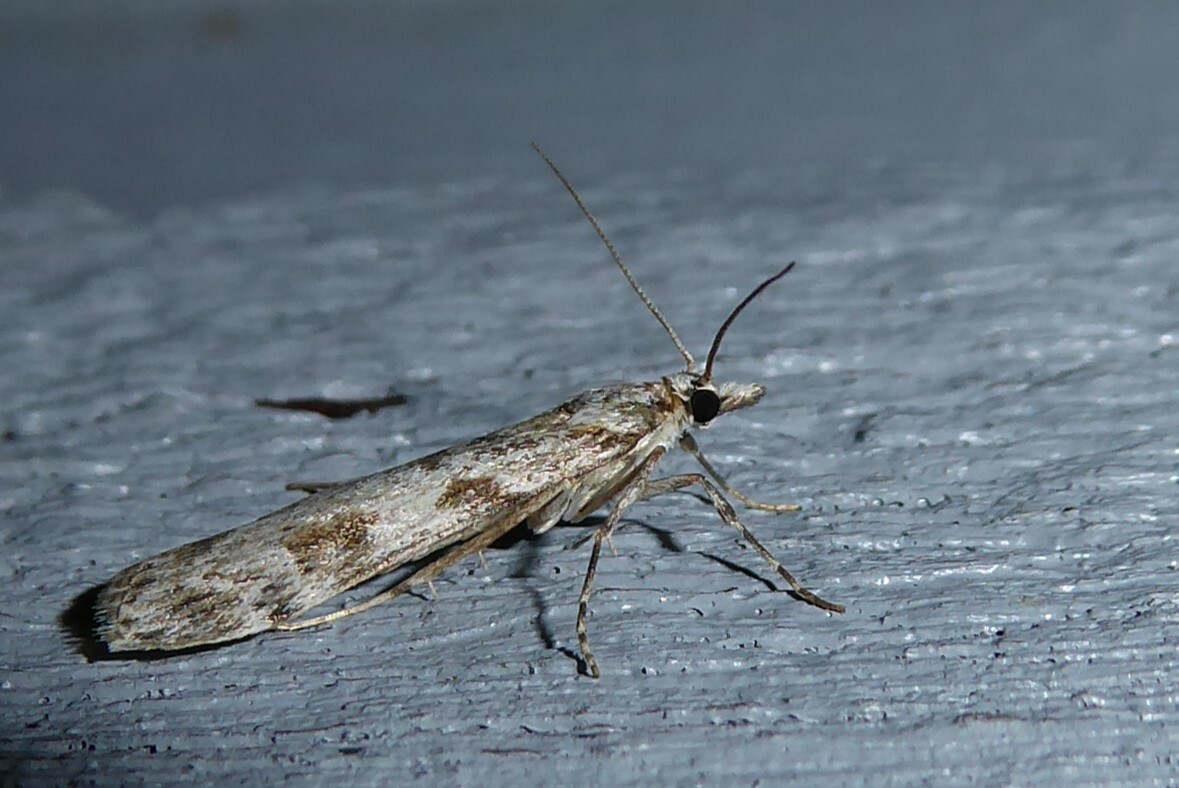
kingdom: Animalia
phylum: Arthropoda
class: Insecta
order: Lepidoptera
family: Crambidae
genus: Scoparia
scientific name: Scoparia halopis
